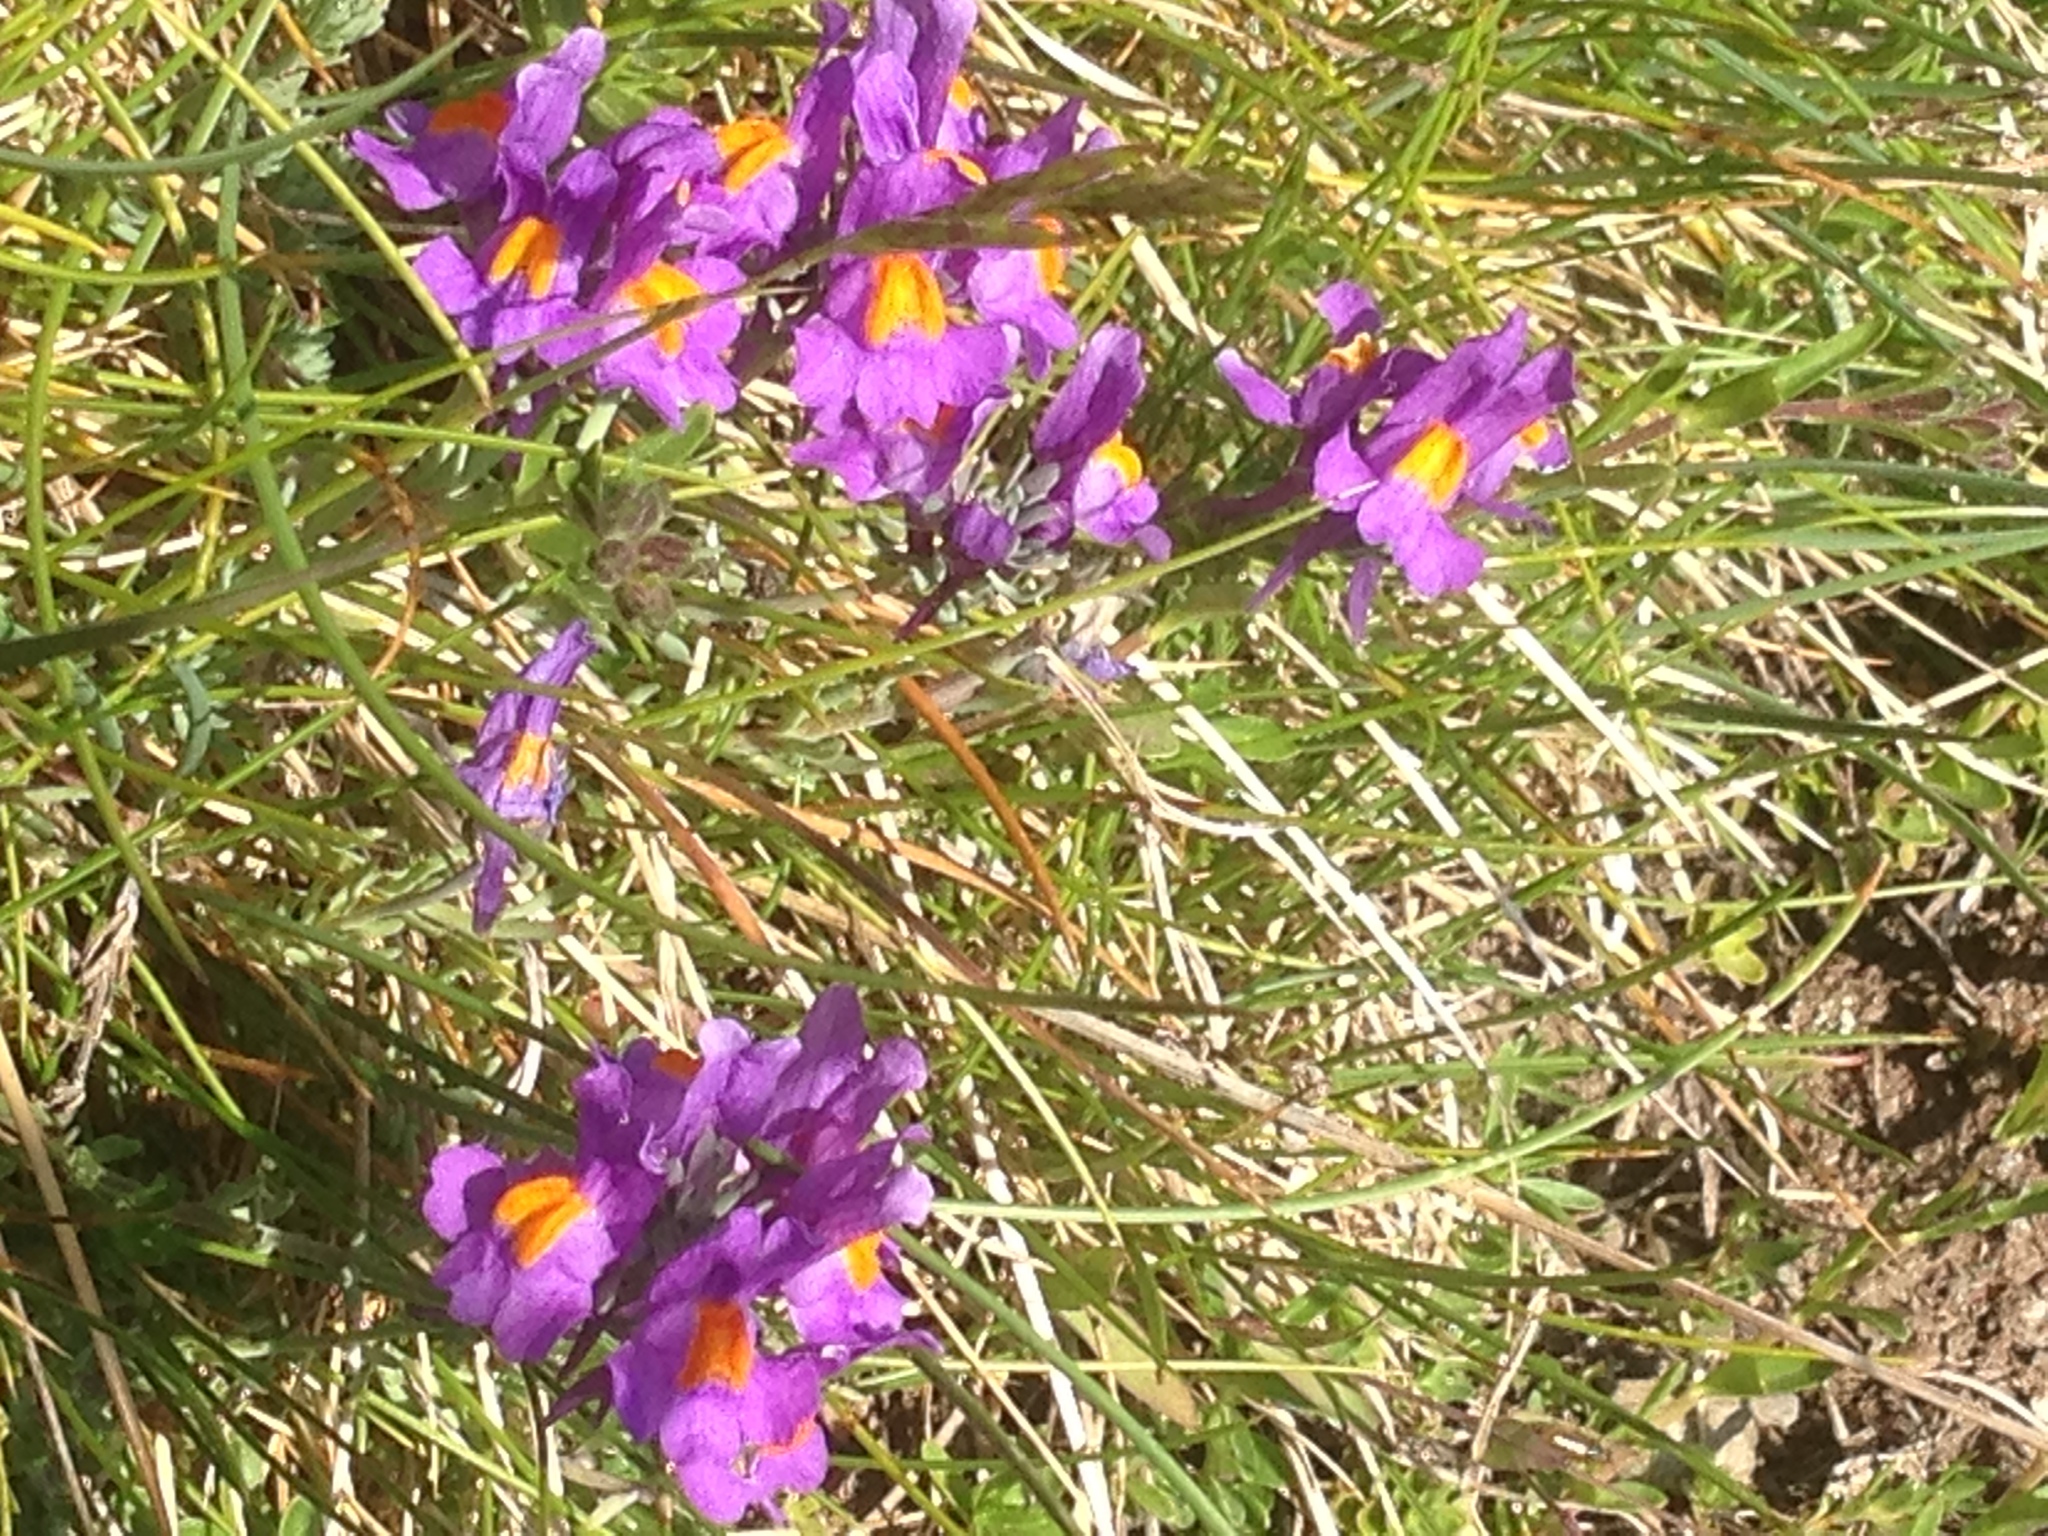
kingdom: Plantae
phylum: Tracheophyta
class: Magnoliopsida
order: Lamiales
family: Plantaginaceae
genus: Linaria
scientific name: Linaria alpina
